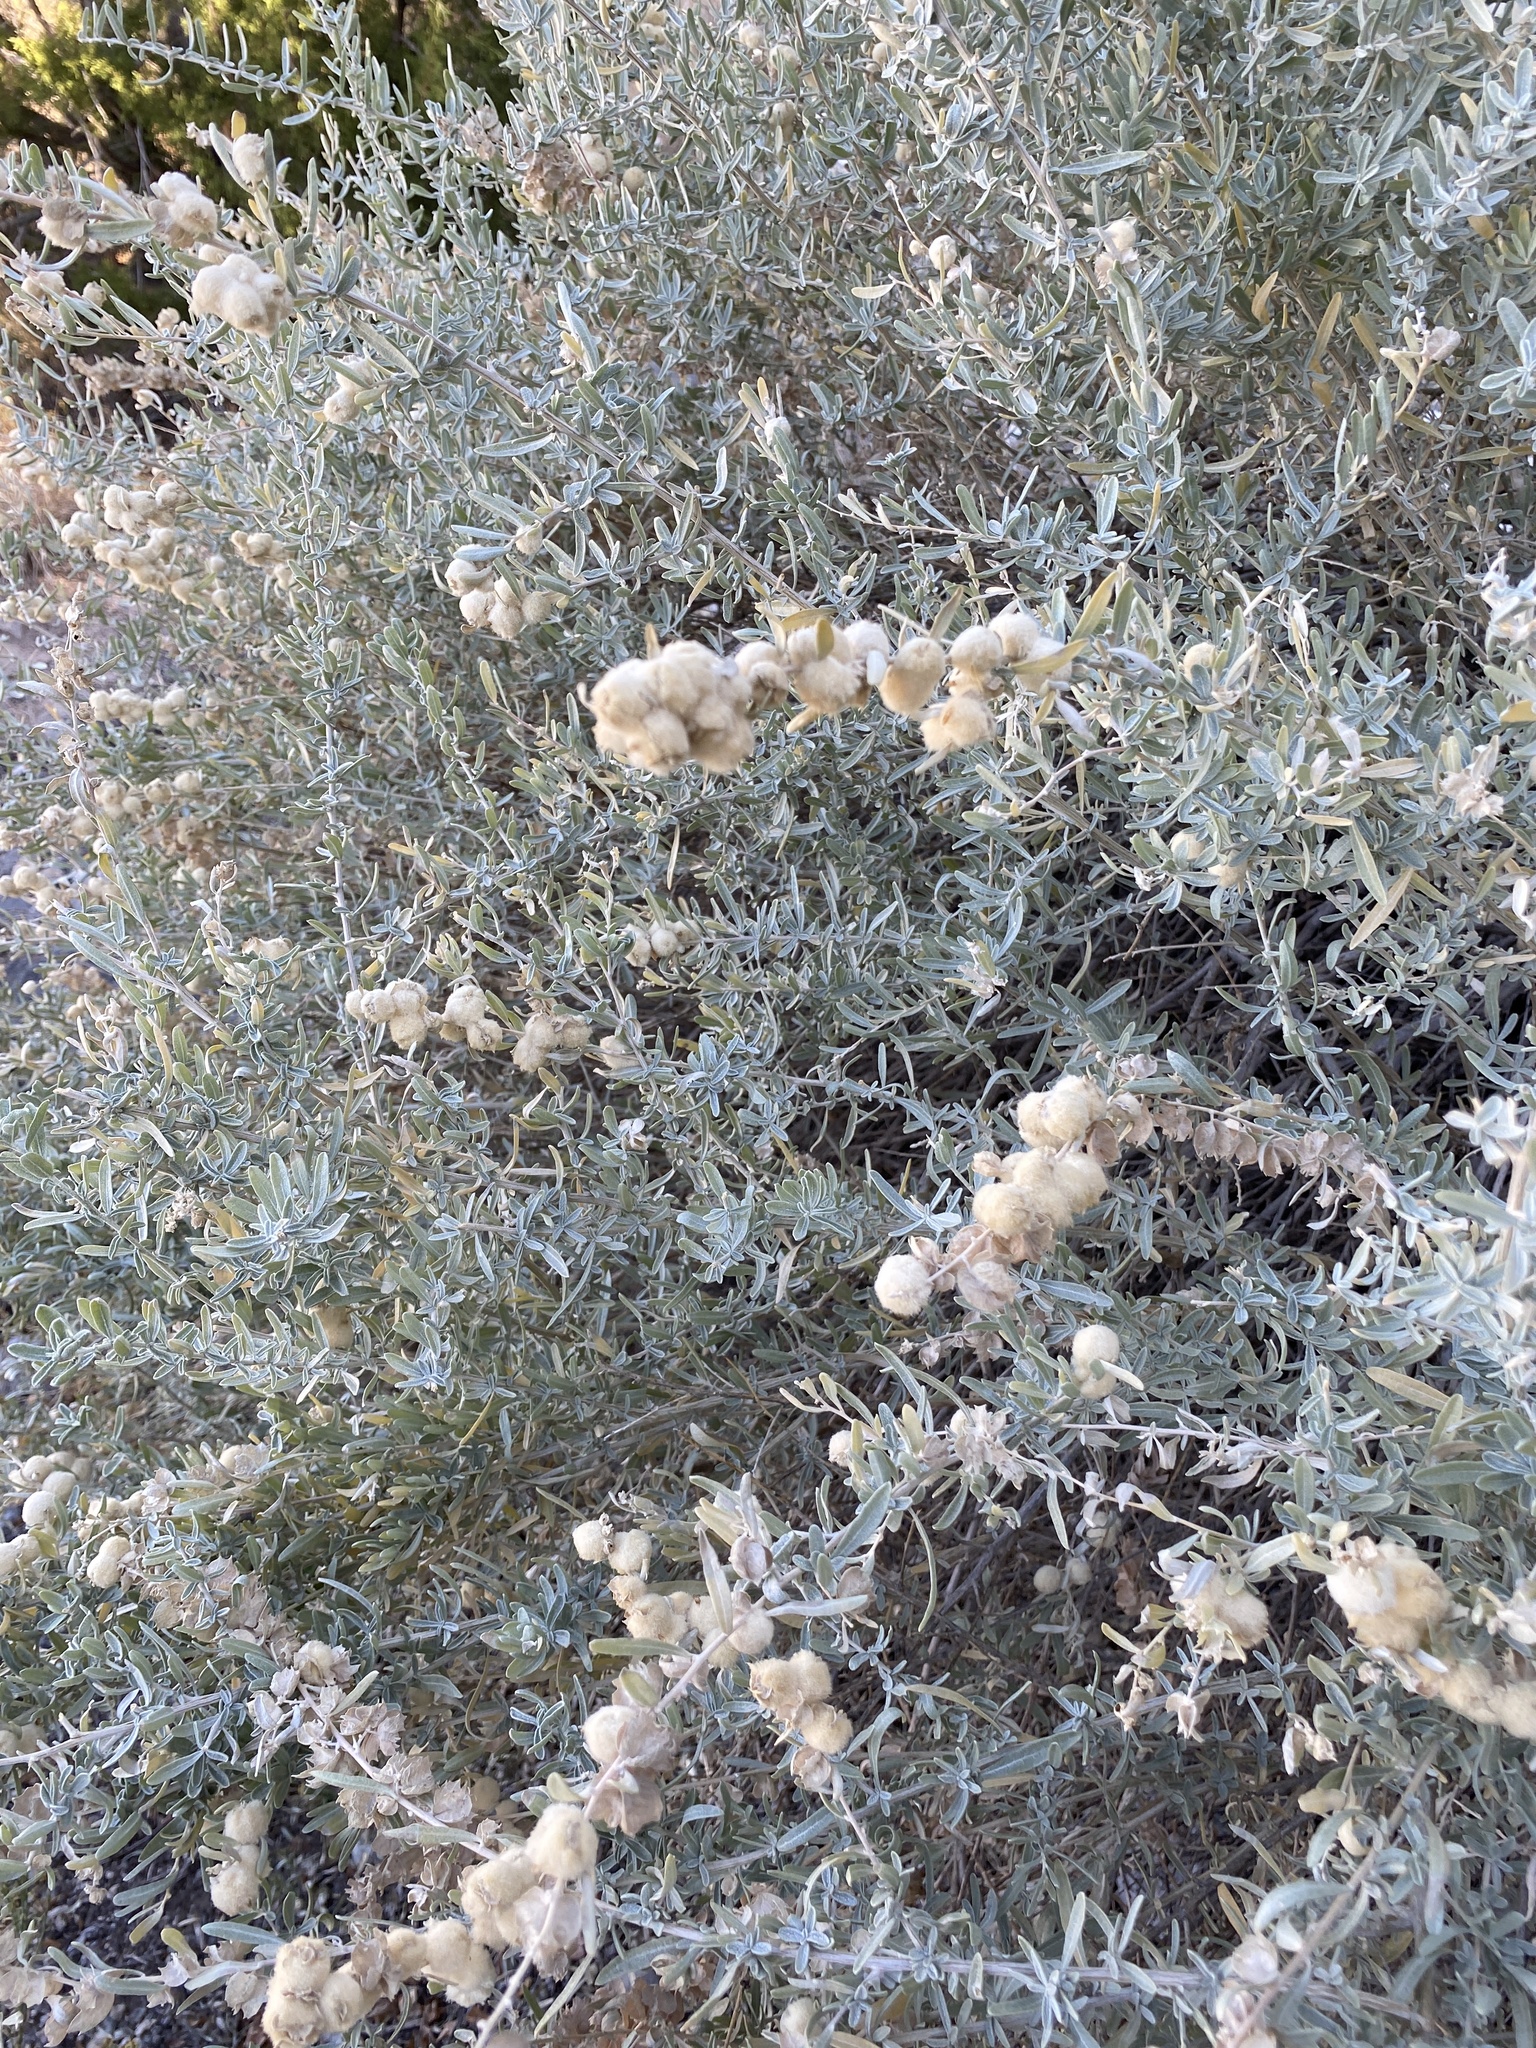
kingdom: Animalia
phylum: Arthropoda
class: Insecta
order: Diptera
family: Cecidomyiidae
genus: Asphondylia
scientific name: Asphondylia neomexicana
